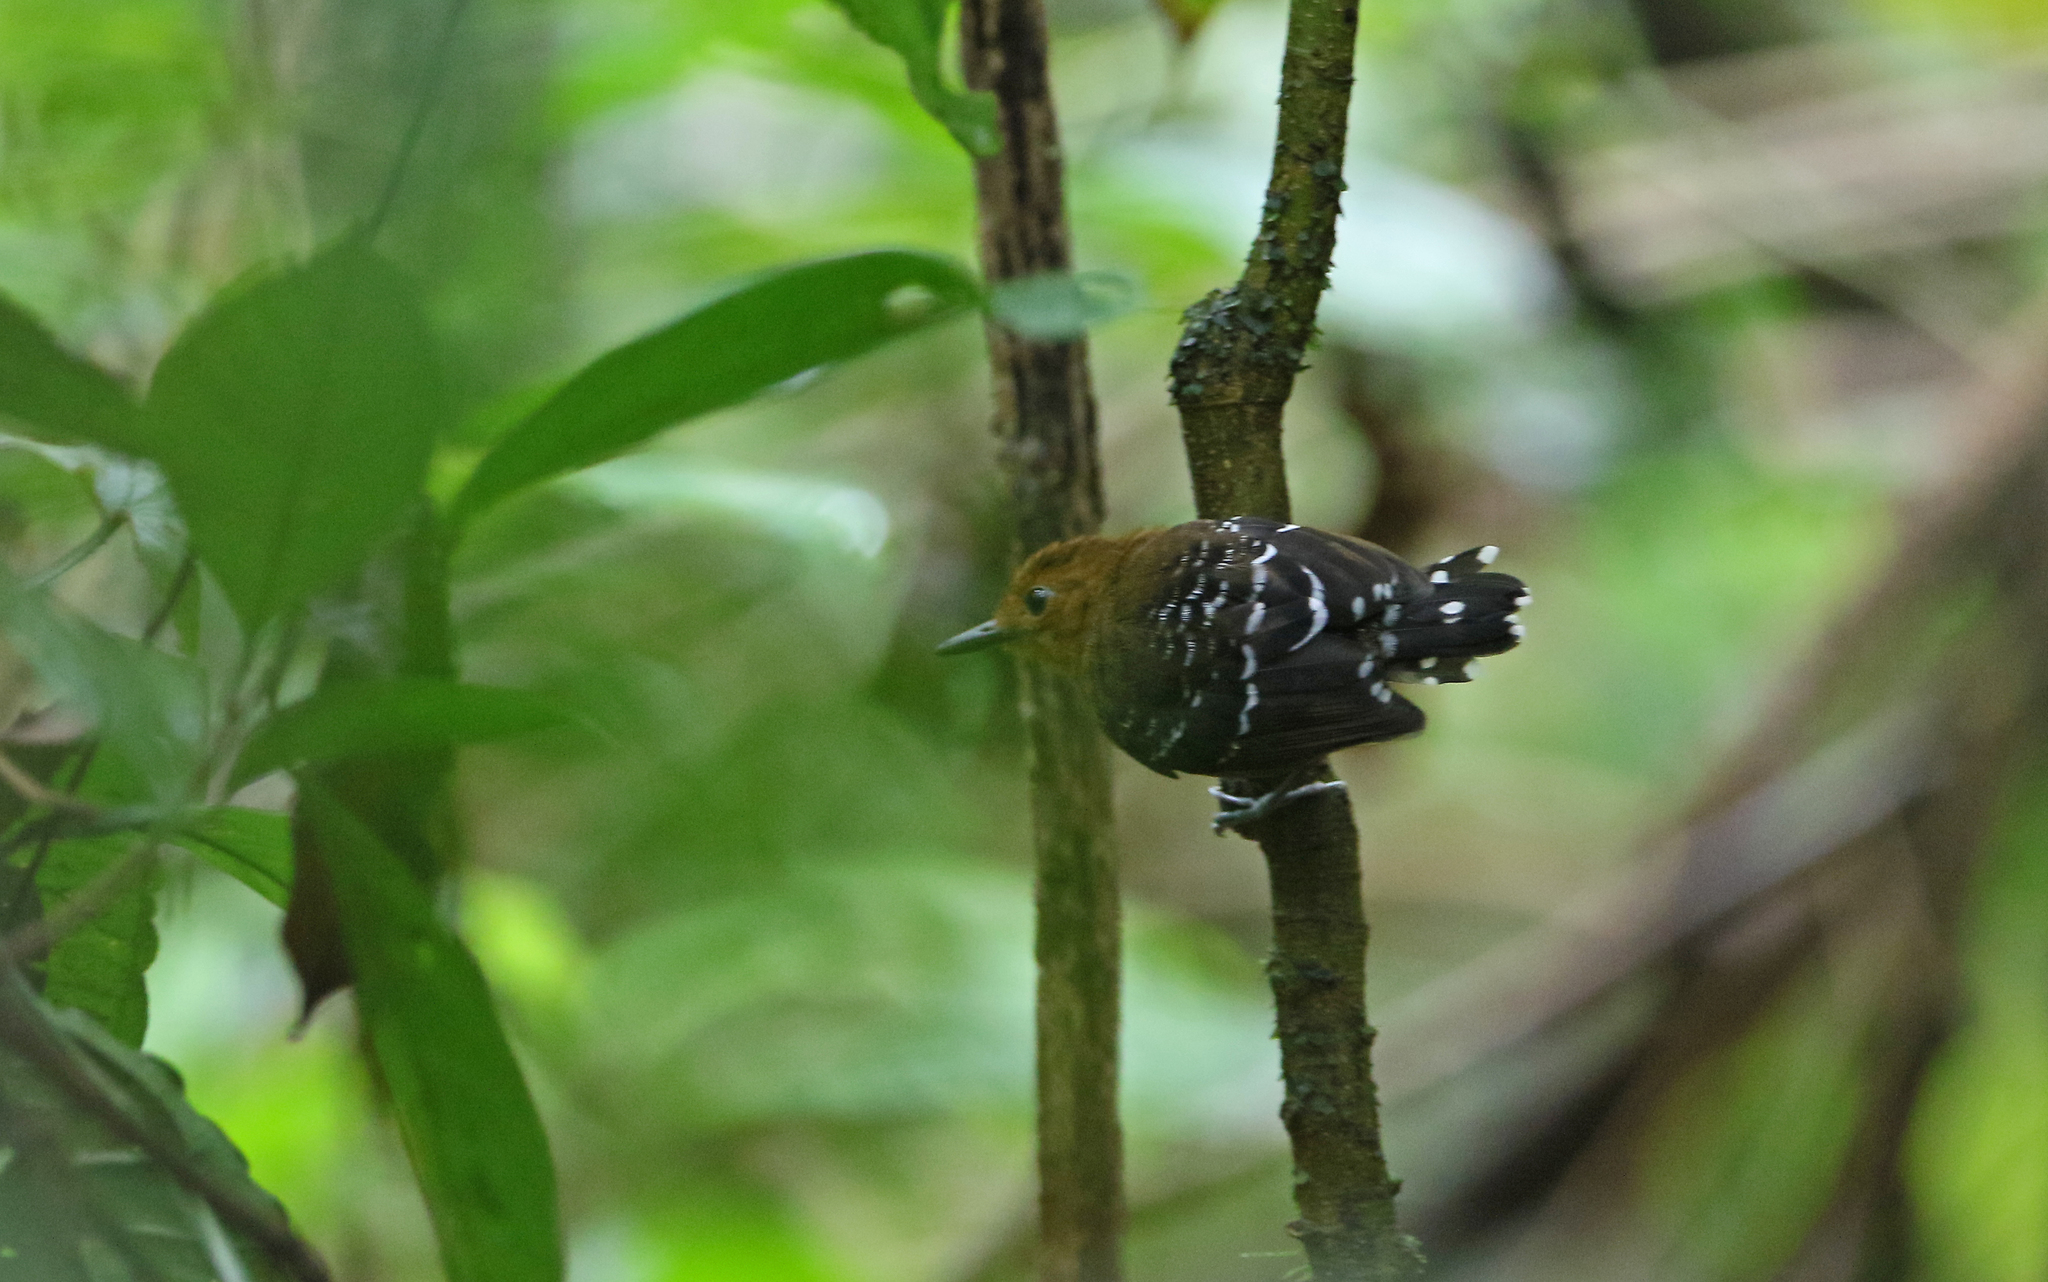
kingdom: Animalia
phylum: Chordata
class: Aves
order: Passeriformes
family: Thamnophilidae
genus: Willisornis
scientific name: Willisornis poecilinotus
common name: Common scale-backed antbird
